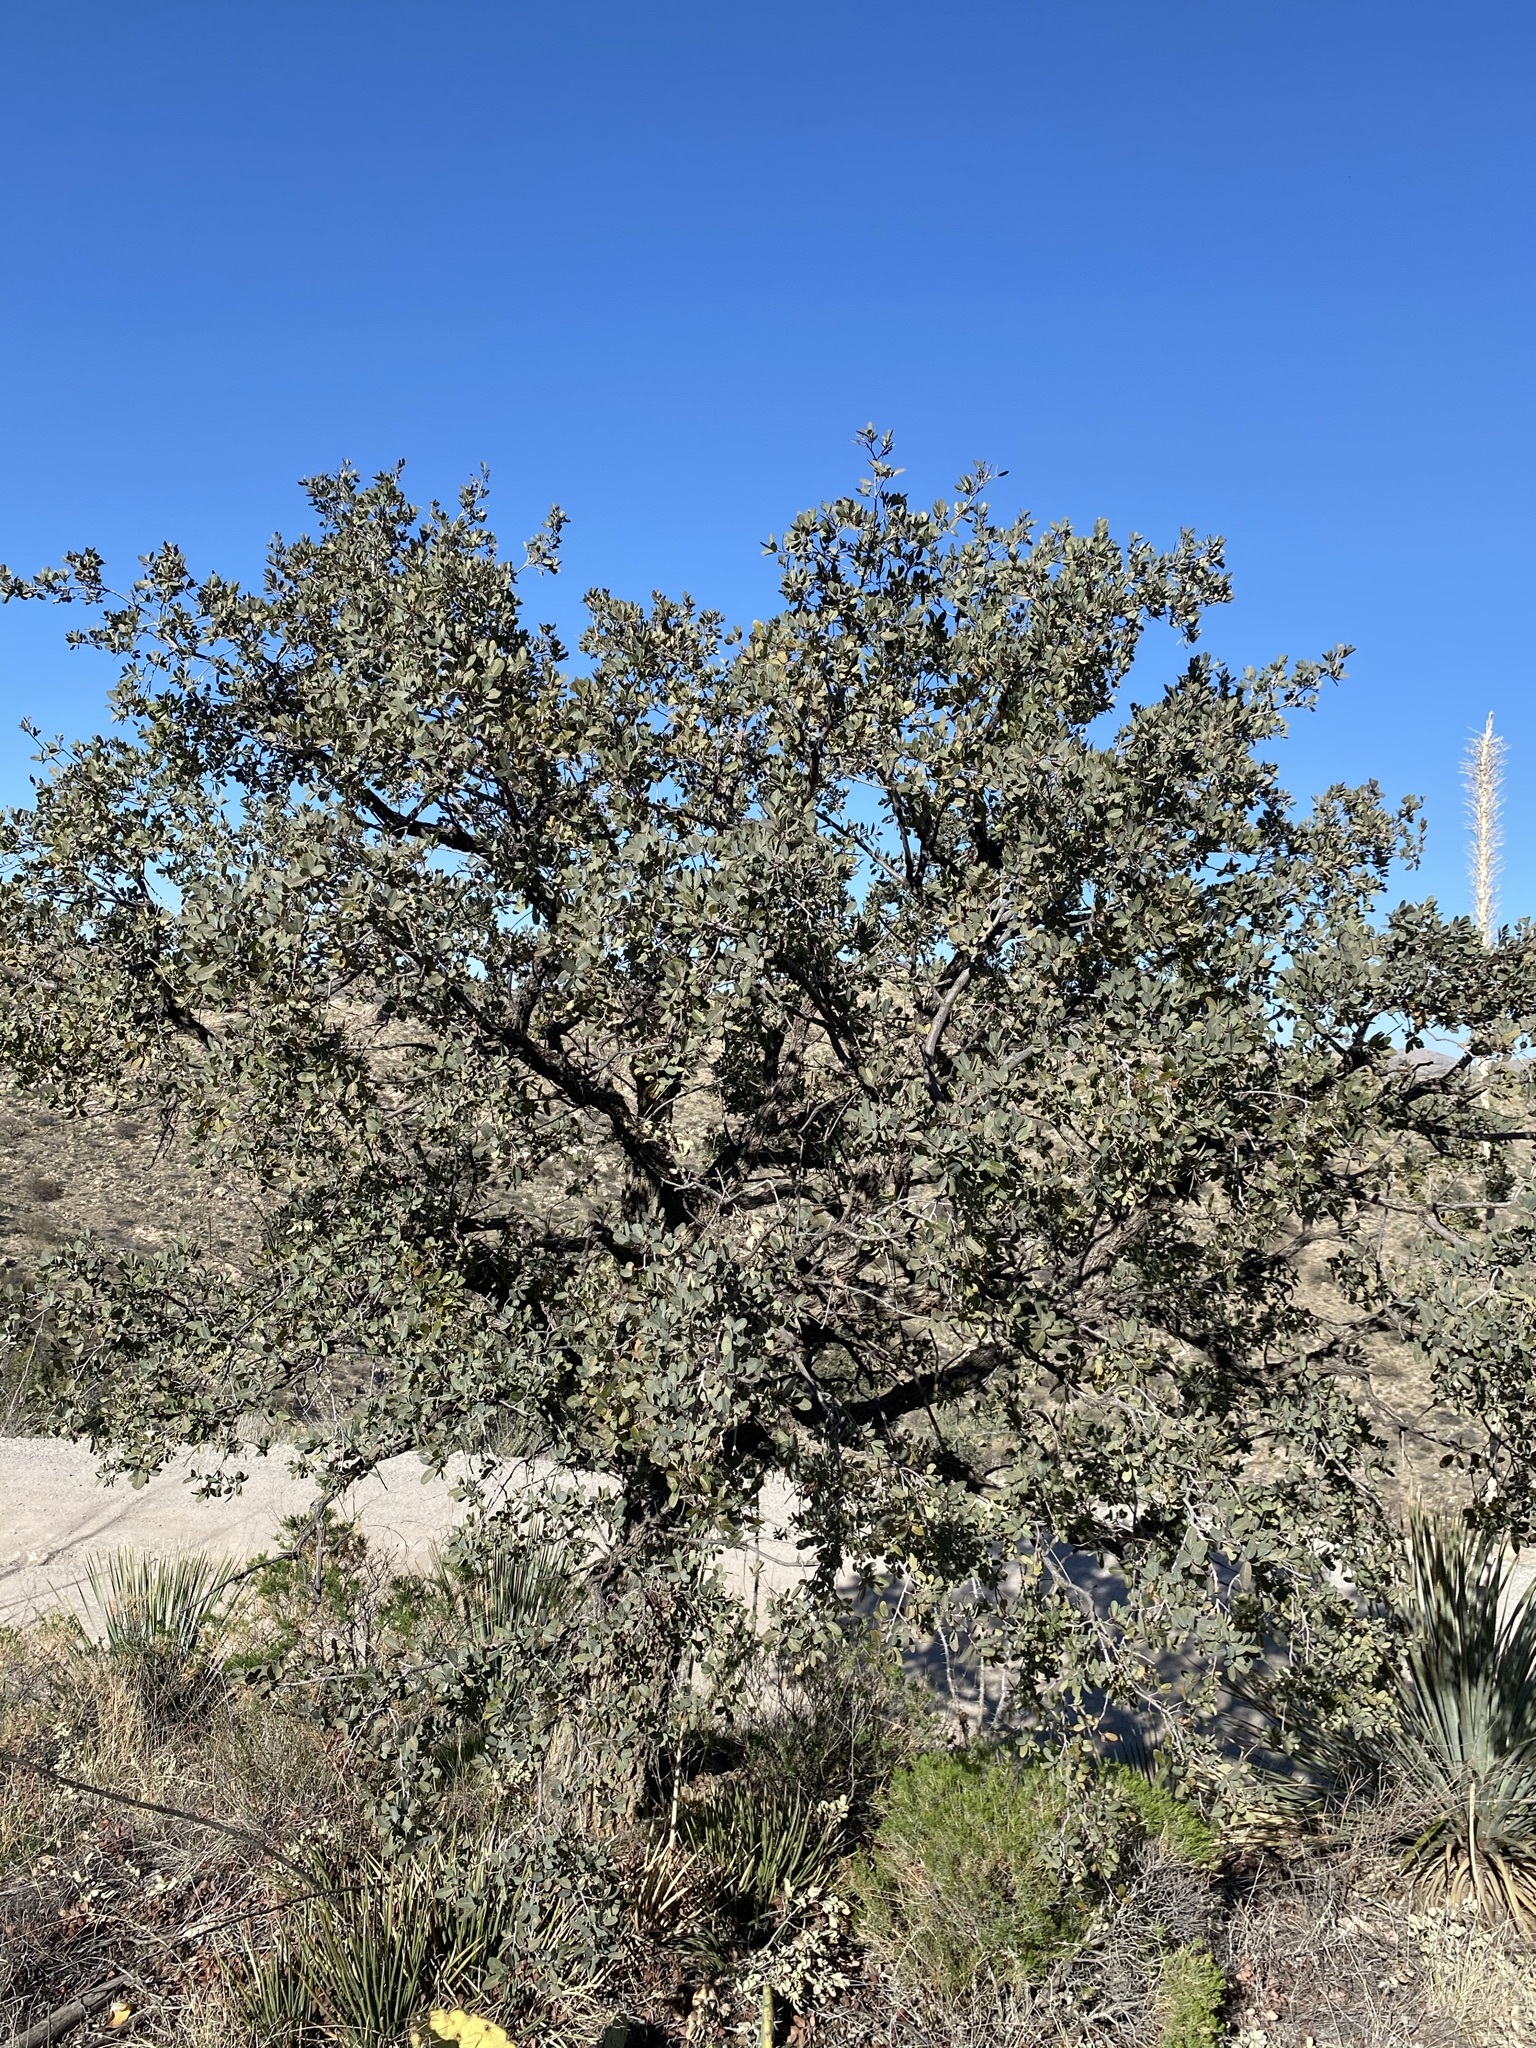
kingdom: Plantae
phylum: Tracheophyta
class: Magnoliopsida
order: Fagales
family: Fagaceae
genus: Quercus
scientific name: Quercus oblongifolia
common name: Mexican blue oak
